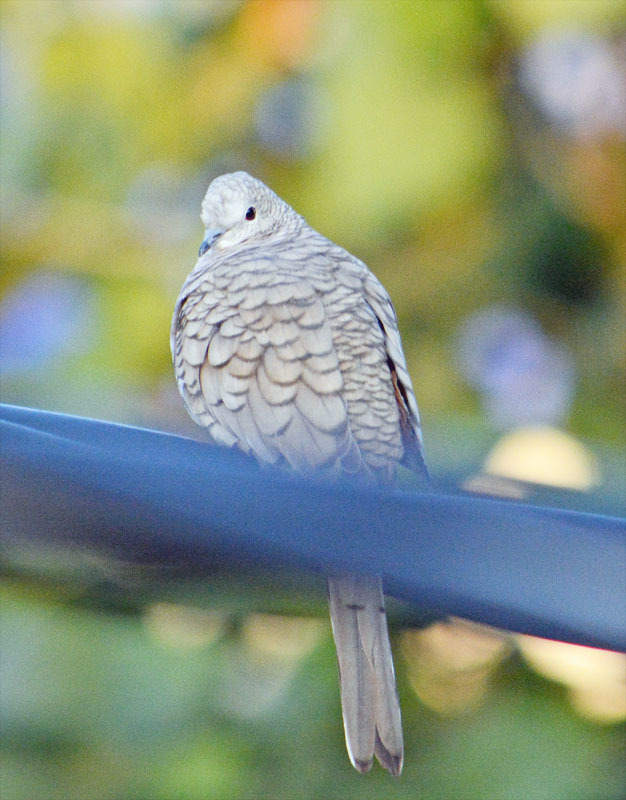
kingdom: Animalia
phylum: Chordata
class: Aves
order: Columbiformes
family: Columbidae
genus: Columbina
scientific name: Columbina inca
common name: Inca dove
